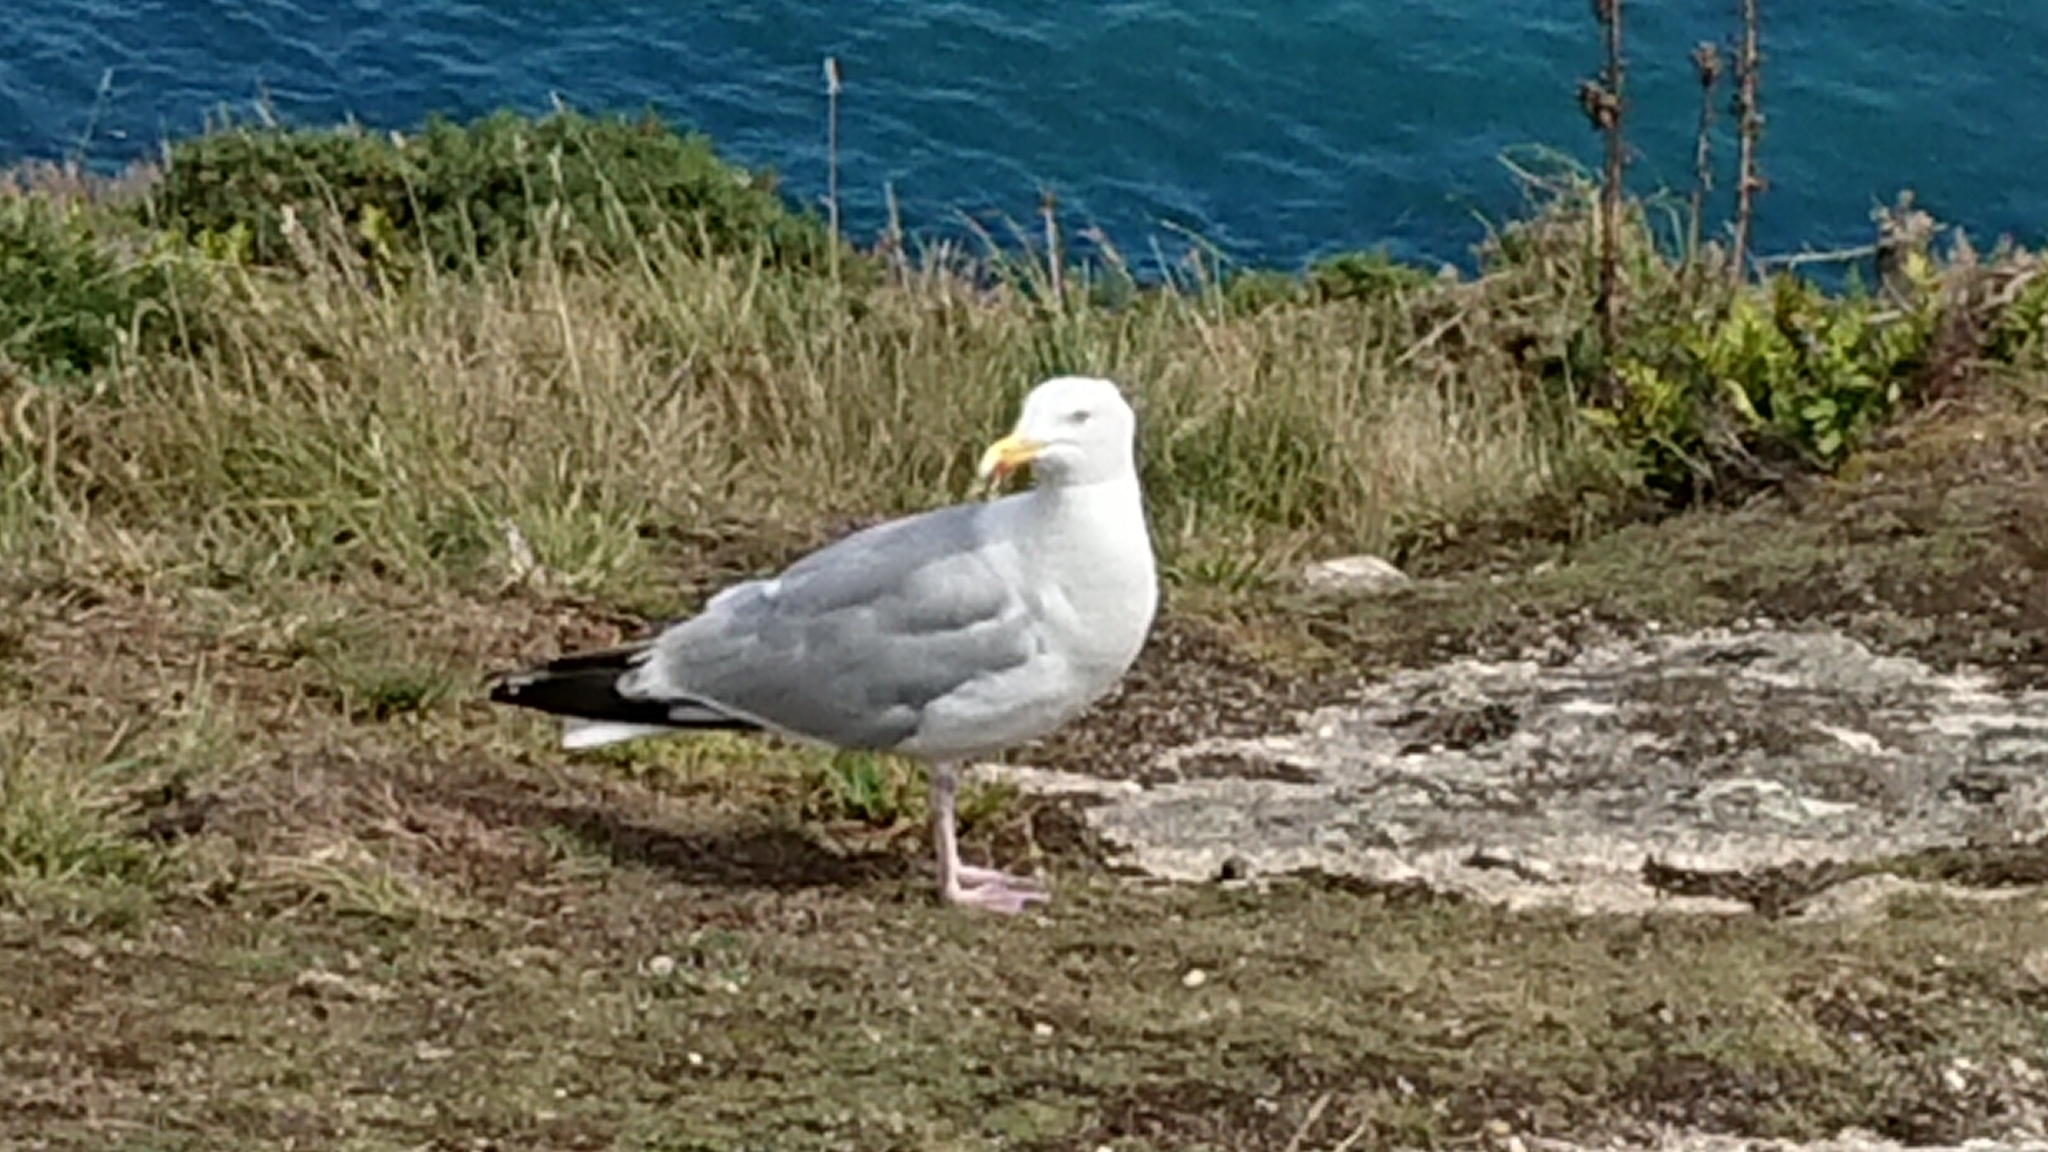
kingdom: Animalia
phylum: Chordata
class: Aves
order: Charadriiformes
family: Laridae
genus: Larus
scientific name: Larus argentatus
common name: Herring gull
